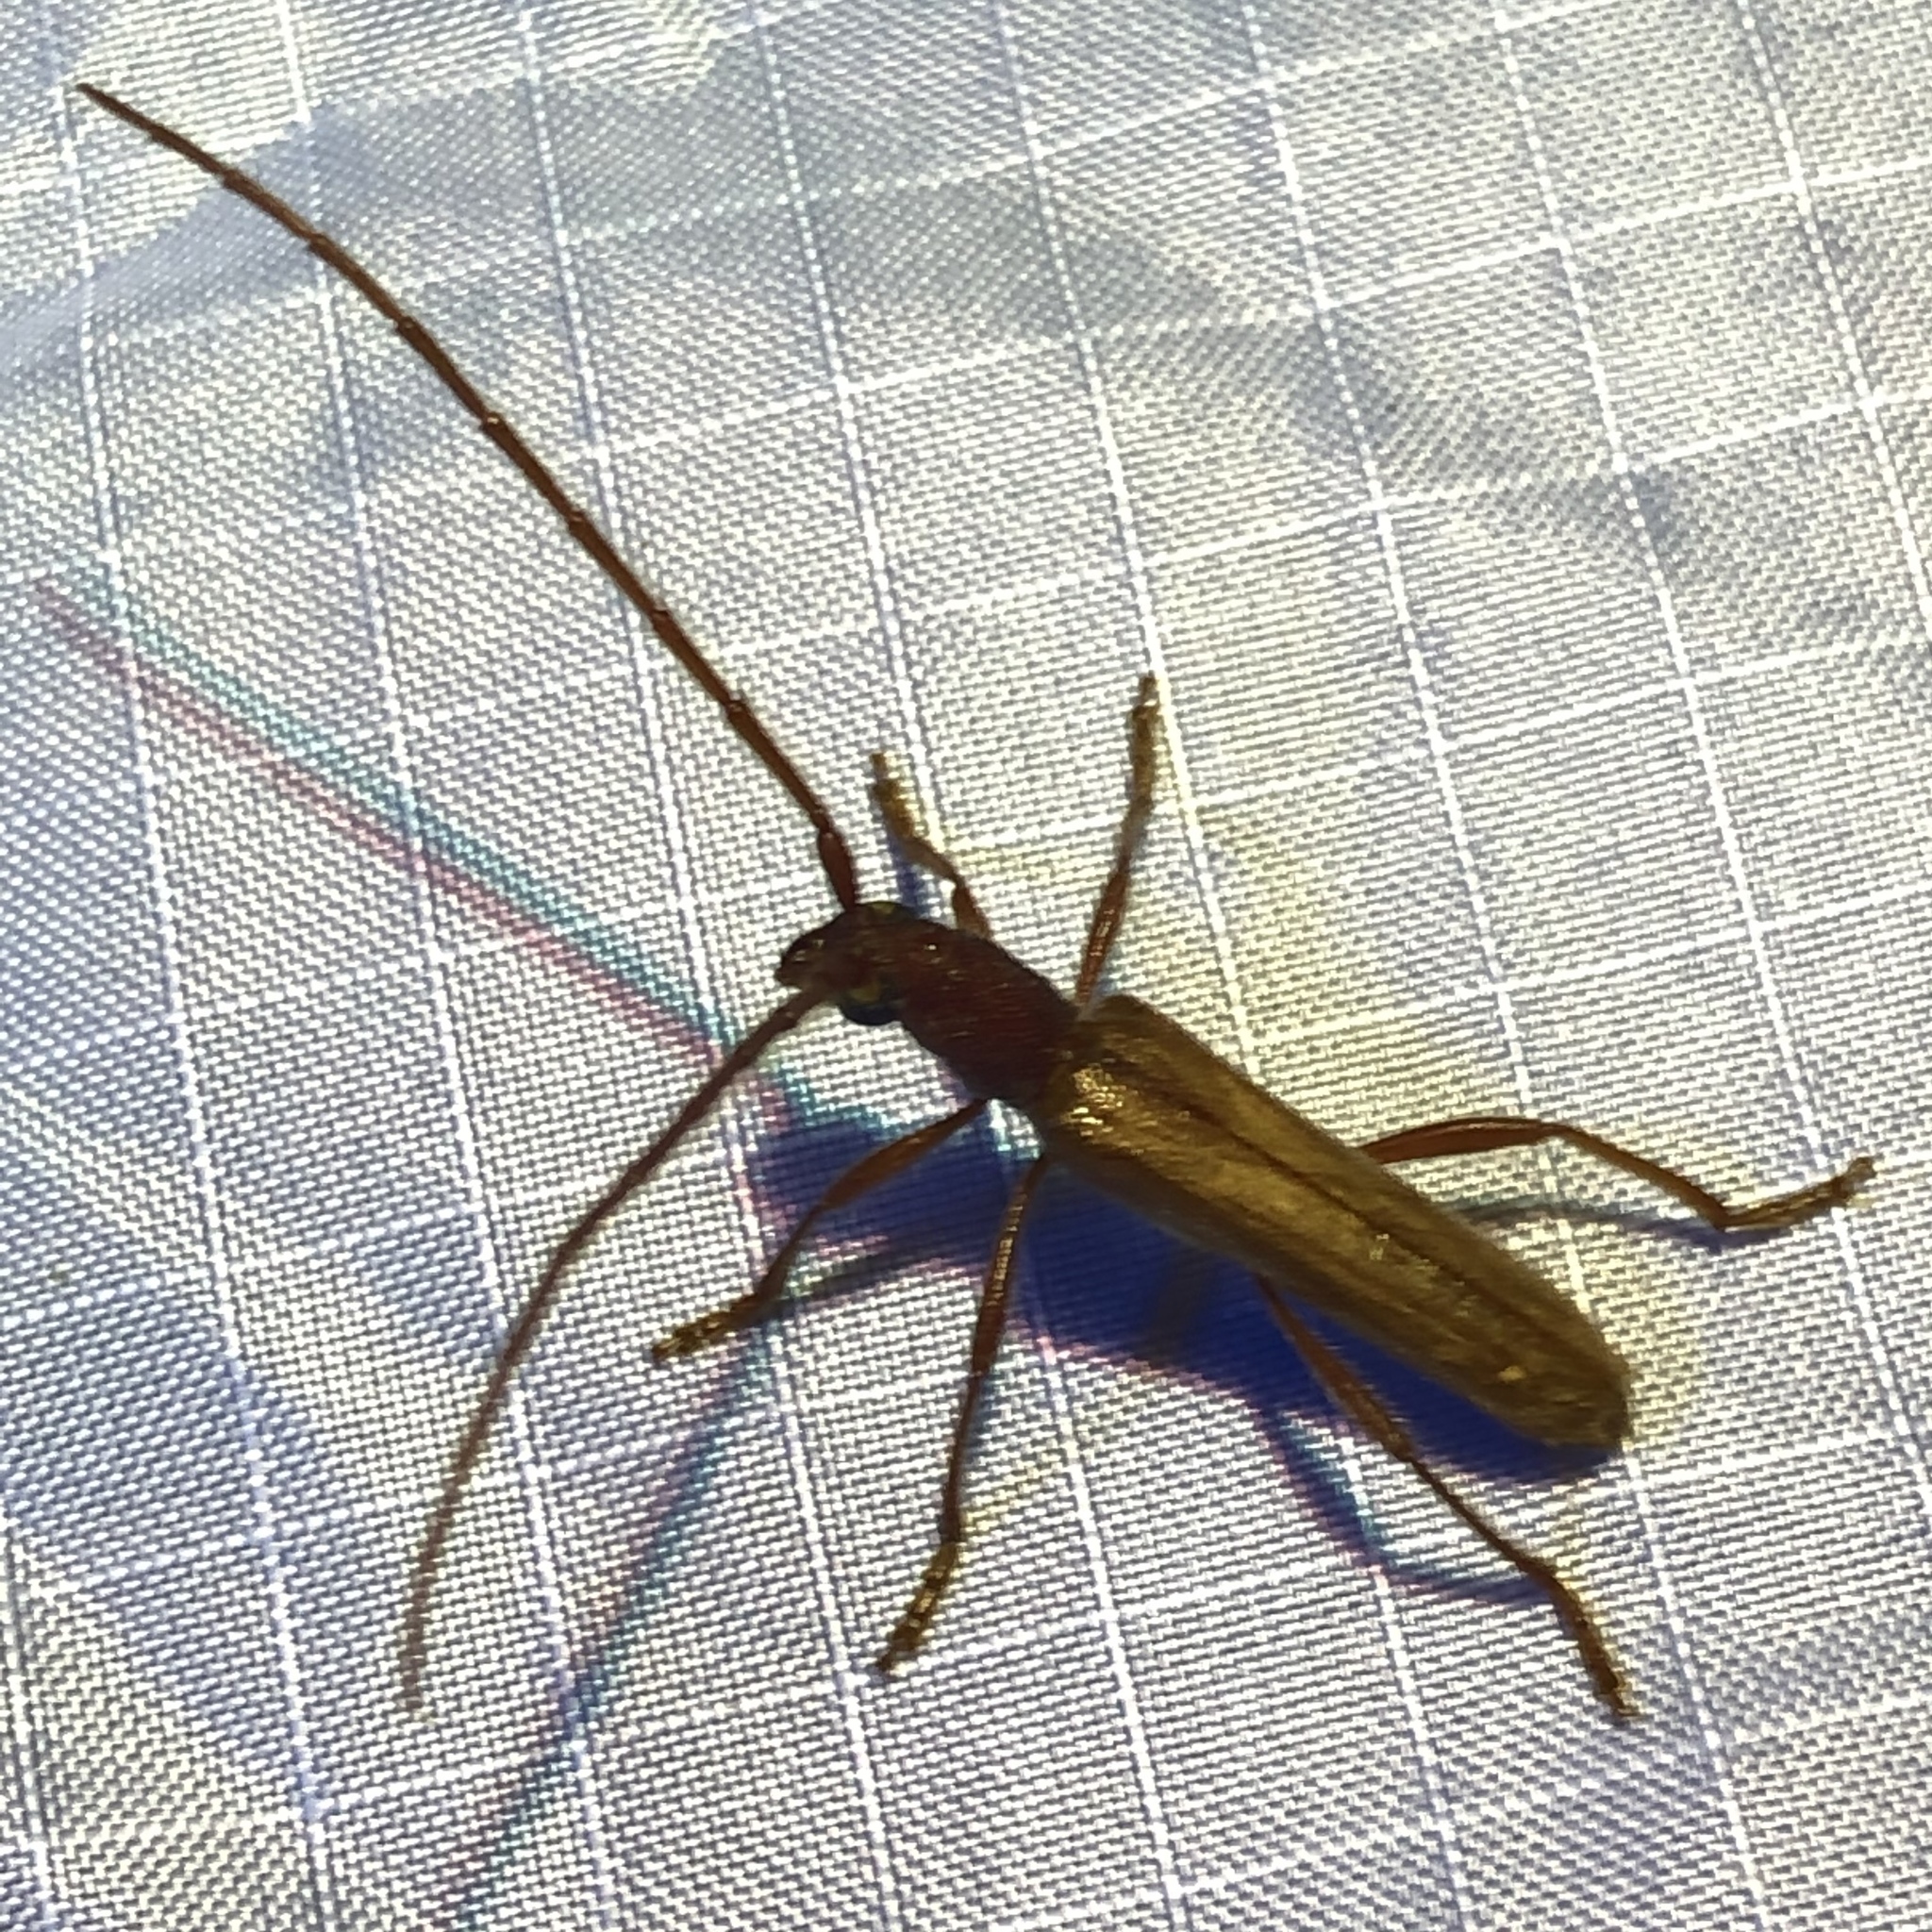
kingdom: Animalia
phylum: Arthropoda
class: Insecta
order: Coleoptera
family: Cerambycidae
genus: Aneflomorpha
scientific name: Aneflomorpha subpubescens
